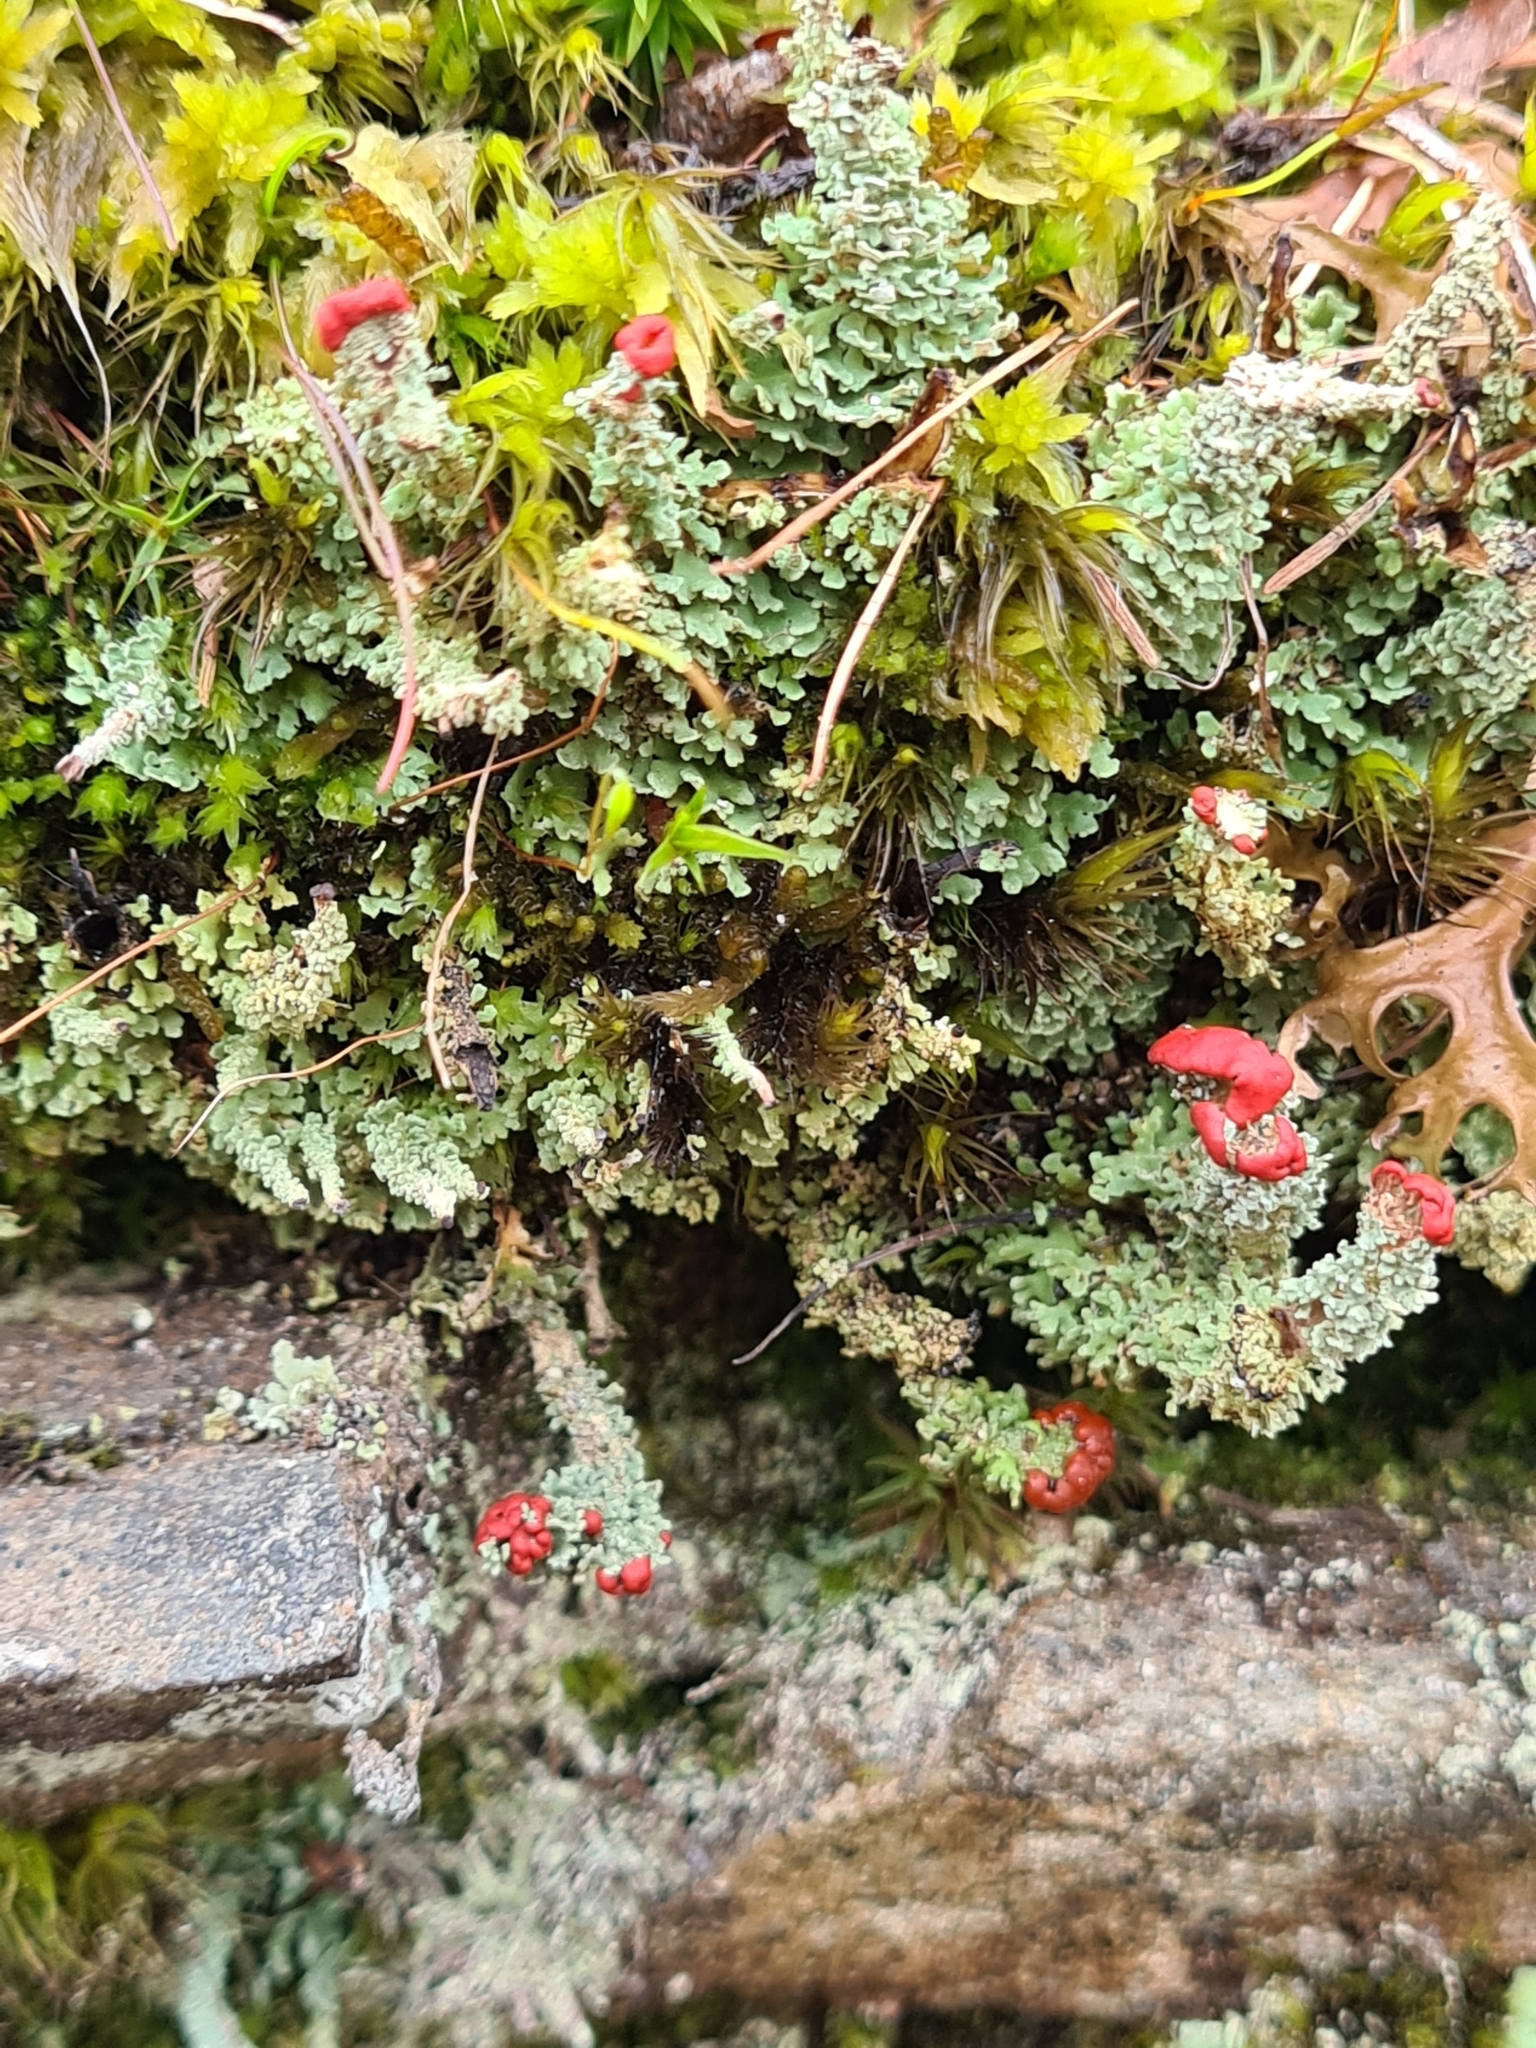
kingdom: Fungi
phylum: Ascomycota
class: Lecanoromycetes
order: Lecanorales
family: Cladoniaceae
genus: Cladonia
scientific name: Cladonia bellidiflora
